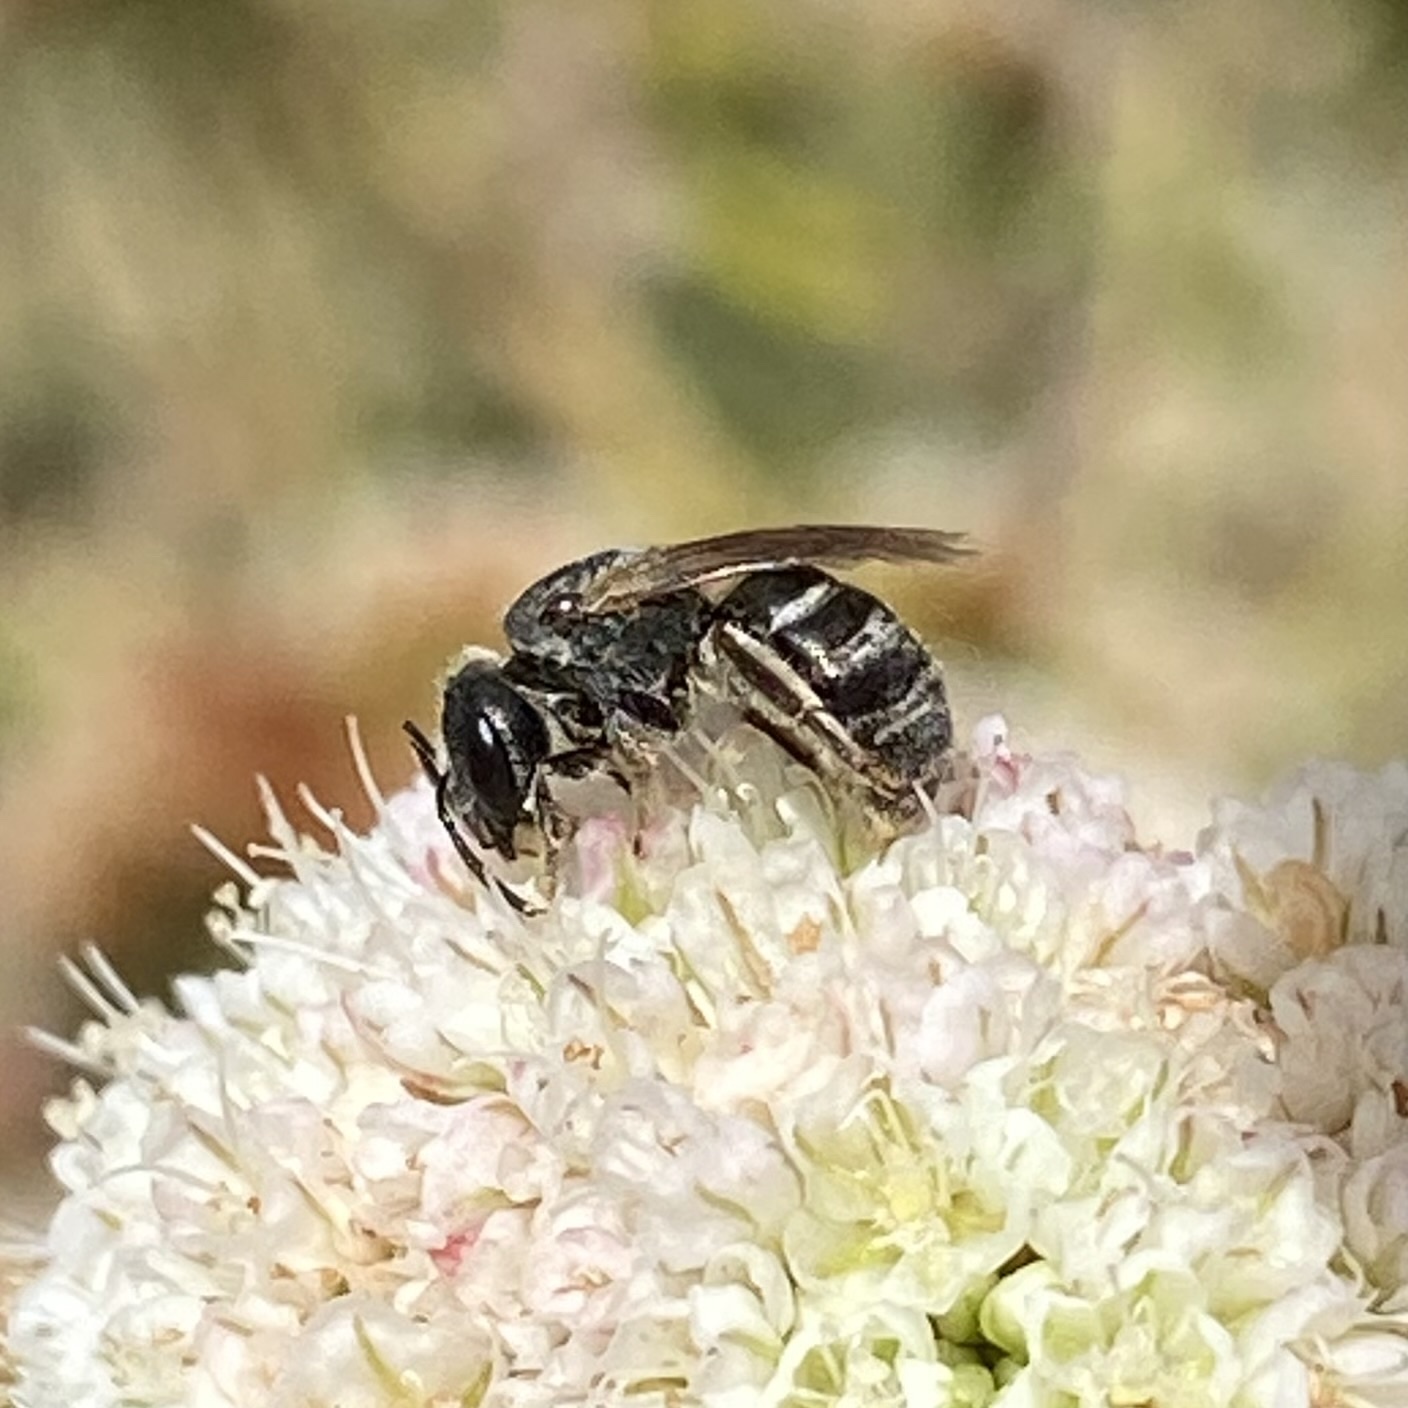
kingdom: Animalia
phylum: Arthropoda
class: Insecta
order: Hymenoptera
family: Halictidae
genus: Halictus
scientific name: Halictus tripartitus
